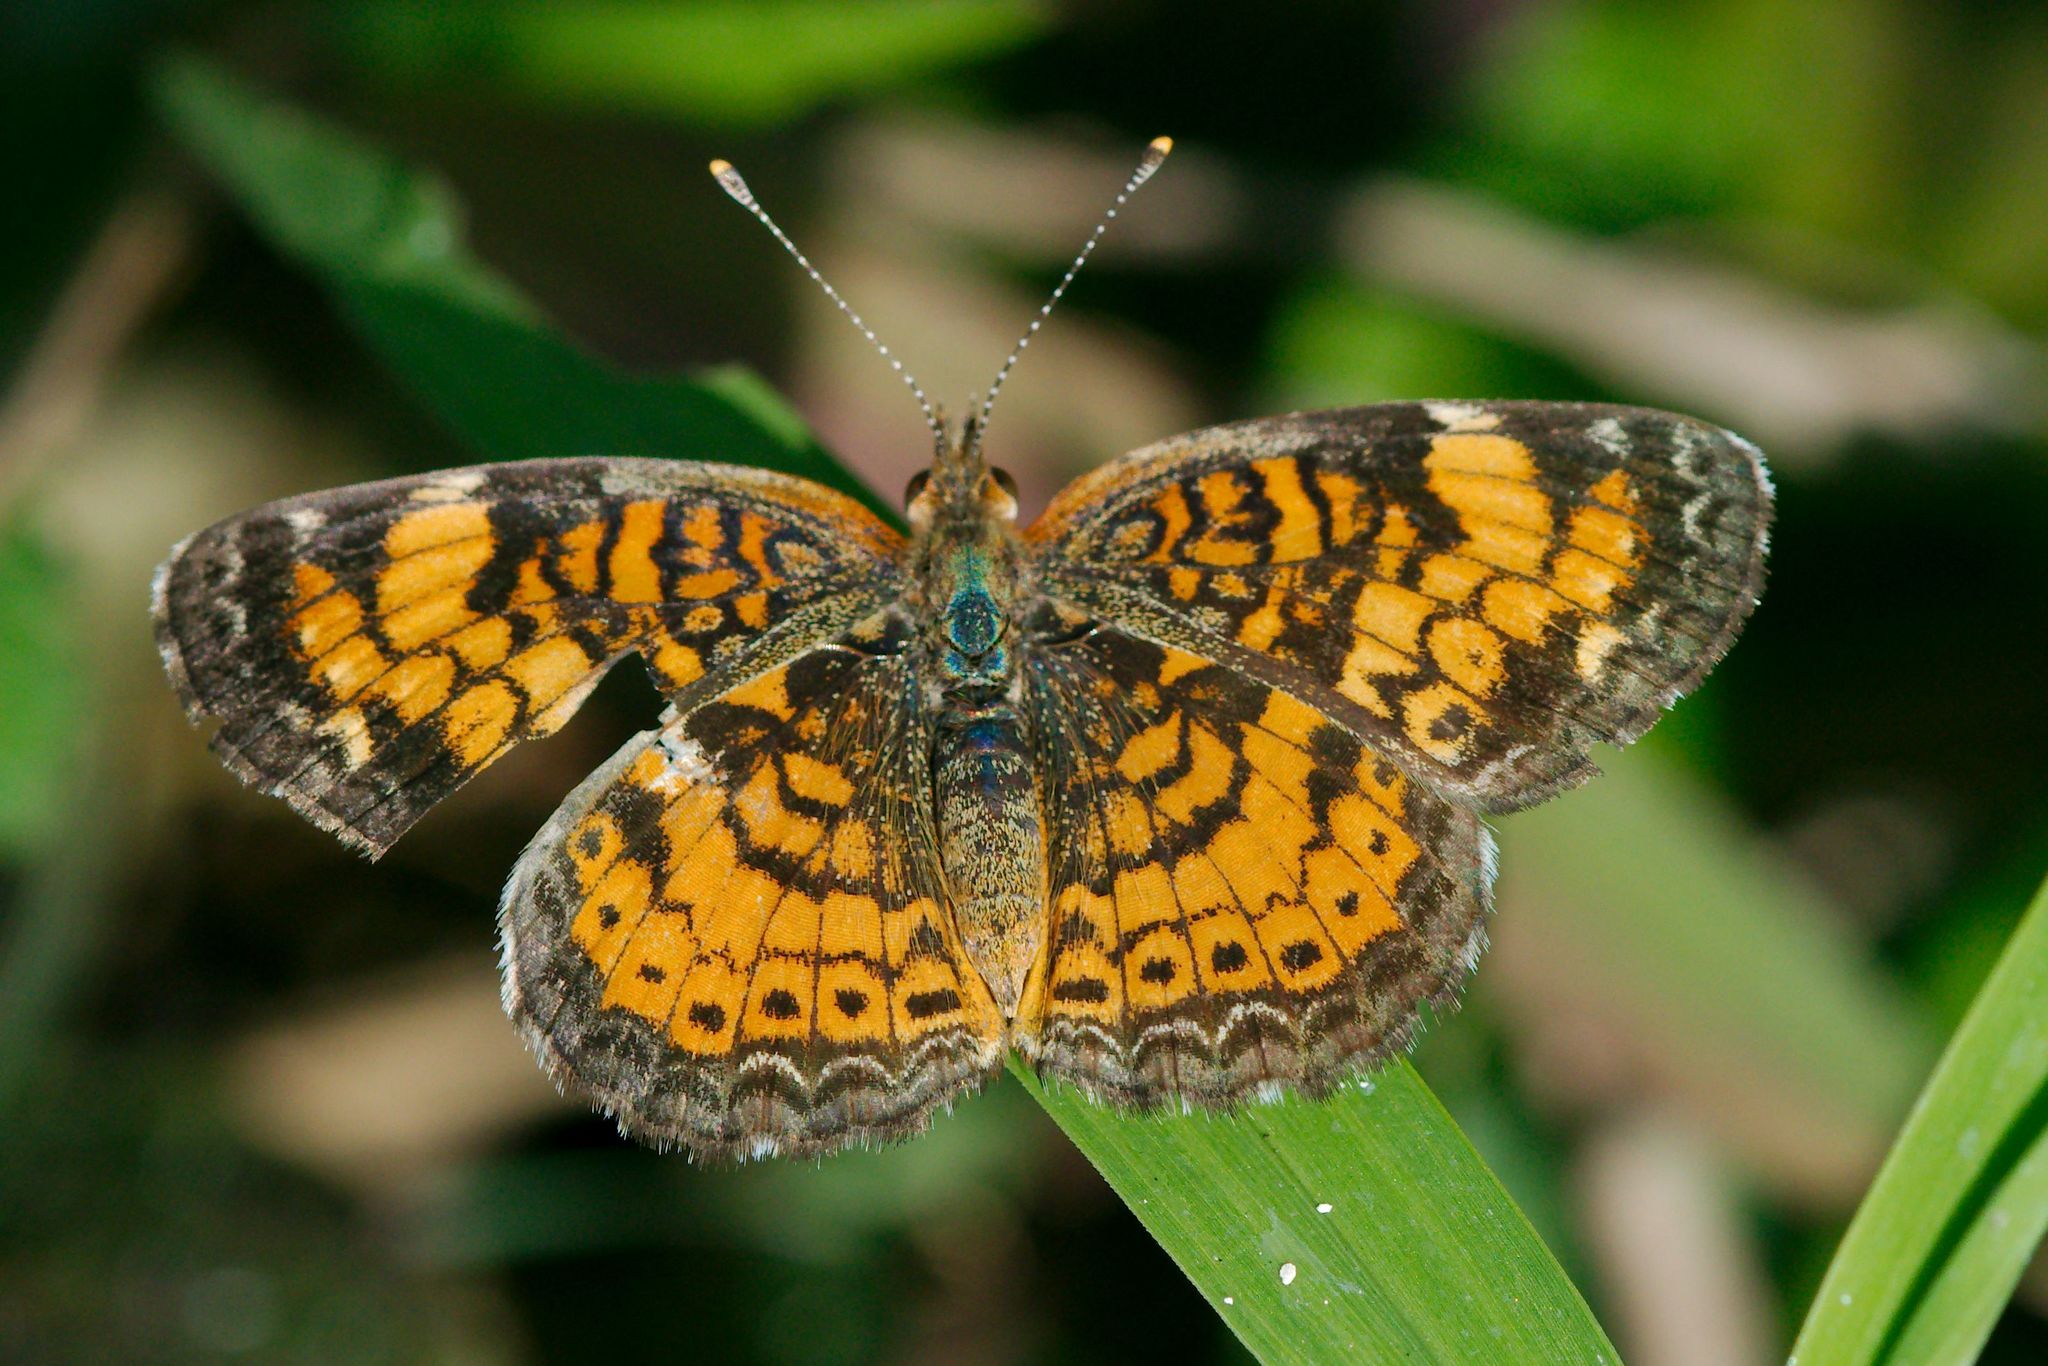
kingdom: Animalia
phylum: Arthropoda
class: Insecta
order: Lepidoptera
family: Nymphalidae
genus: Phyciodes
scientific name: Phyciodes tharos
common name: Pearl crescent
